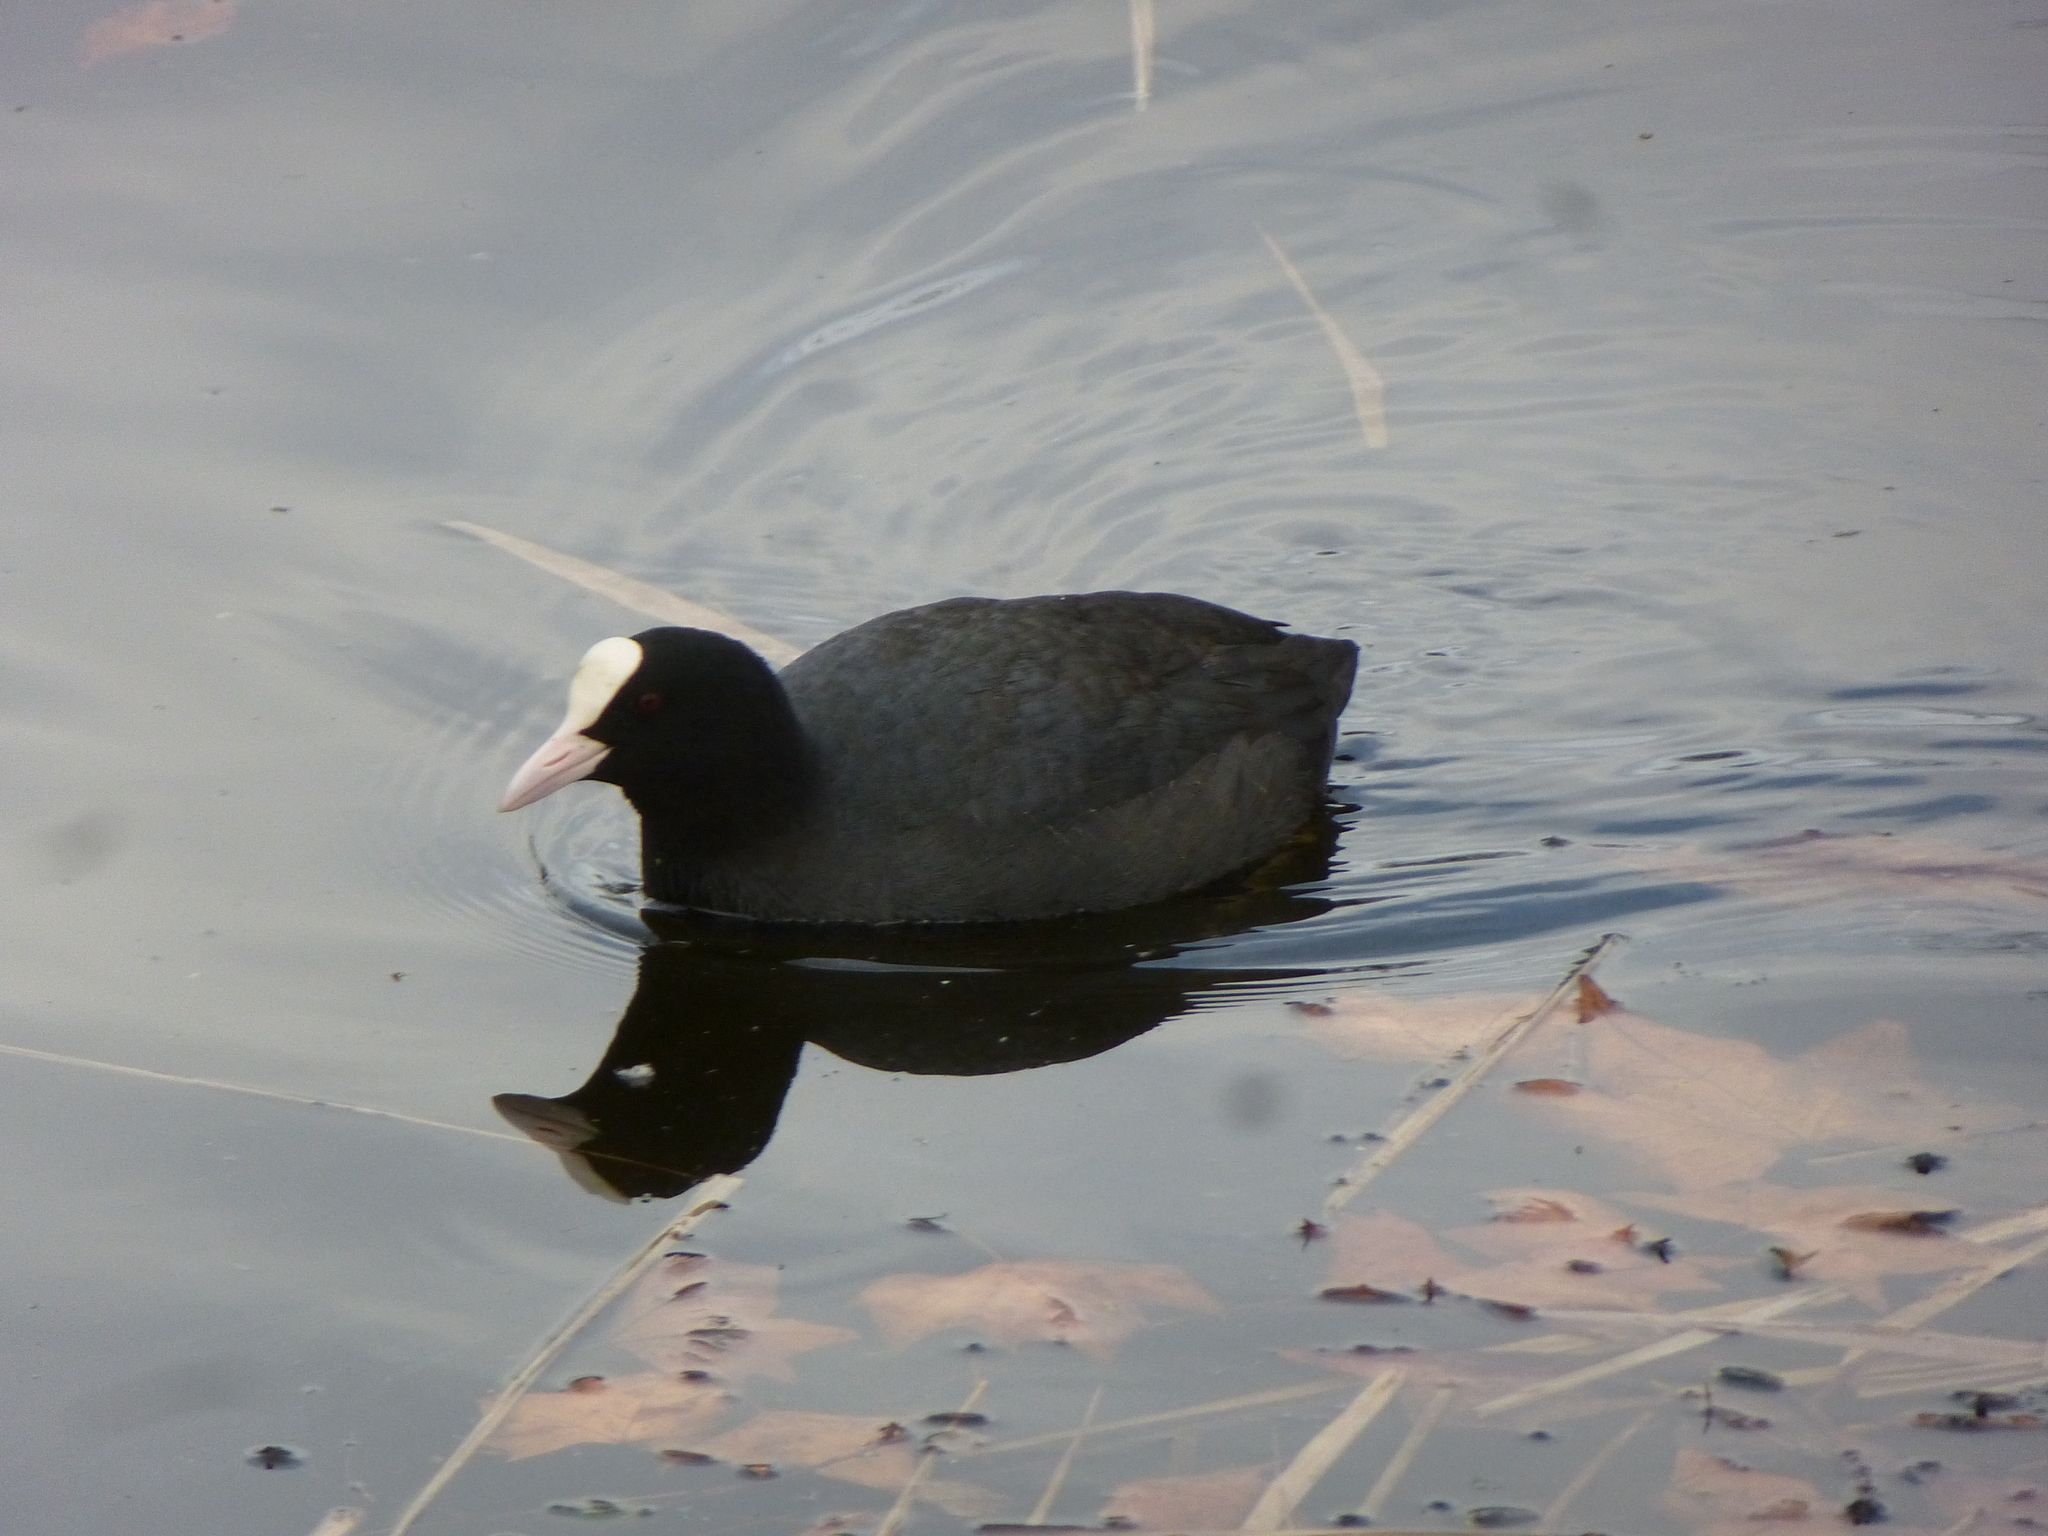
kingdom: Animalia
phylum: Chordata
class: Aves
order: Gruiformes
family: Rallidae
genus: Fulica
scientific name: Fulica atra
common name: Eurasian coot
